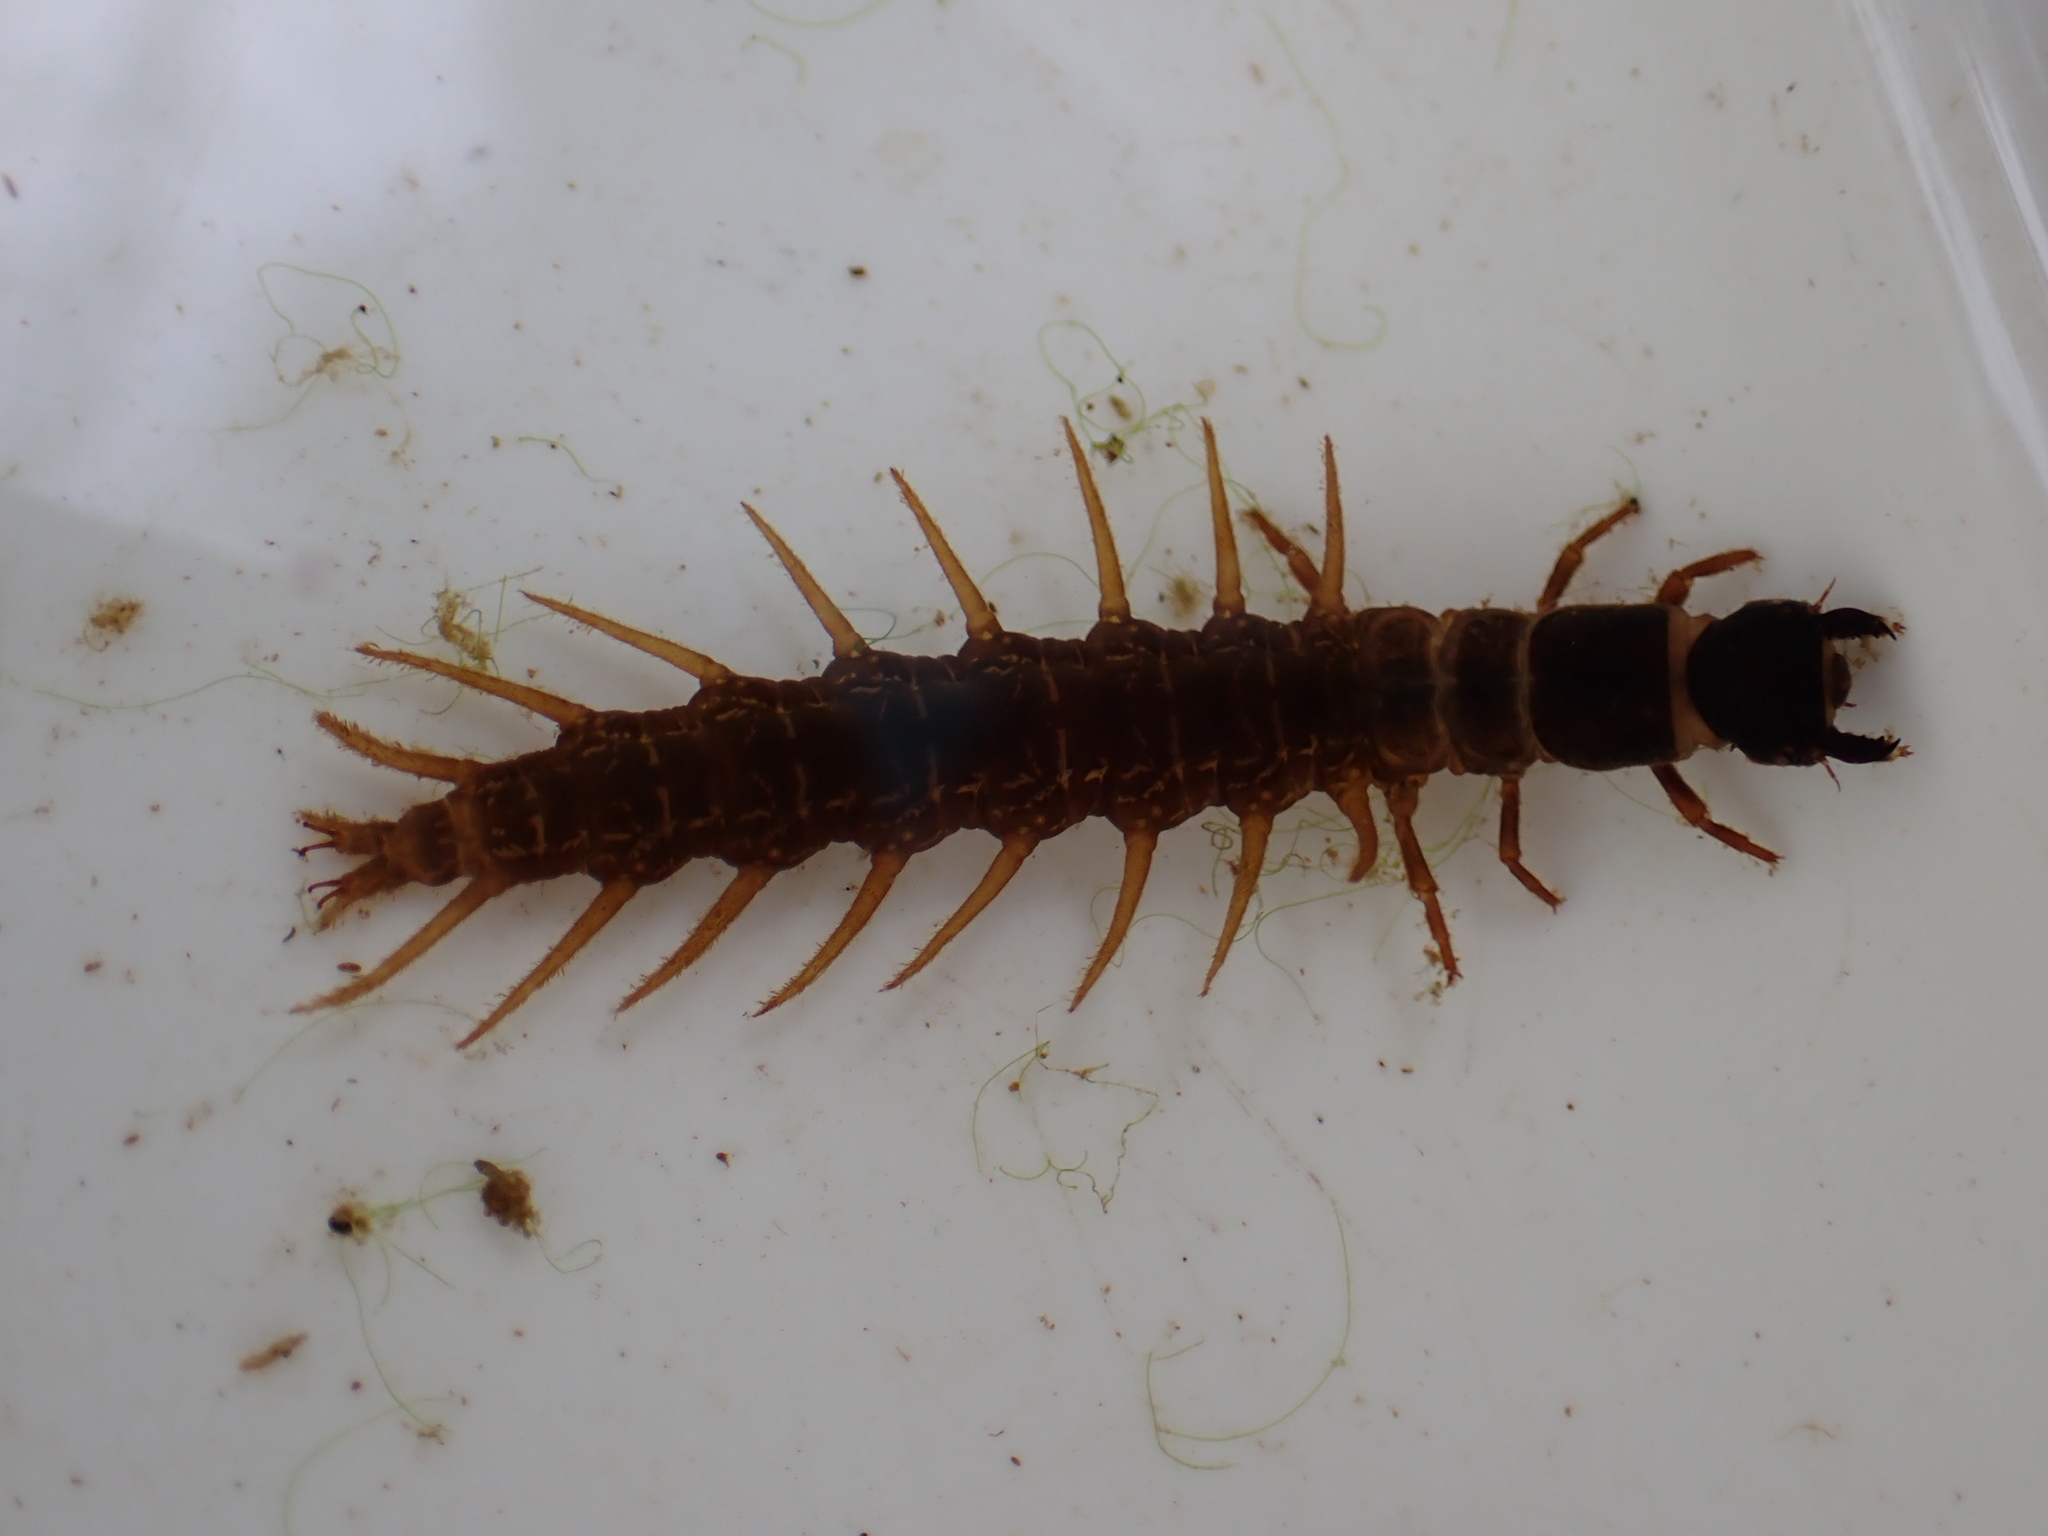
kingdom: Animalia
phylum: Arthropoda
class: Insecta
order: Megaloptera
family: Corydalidae
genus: Archichauliodes
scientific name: Archichauliodes diversus
